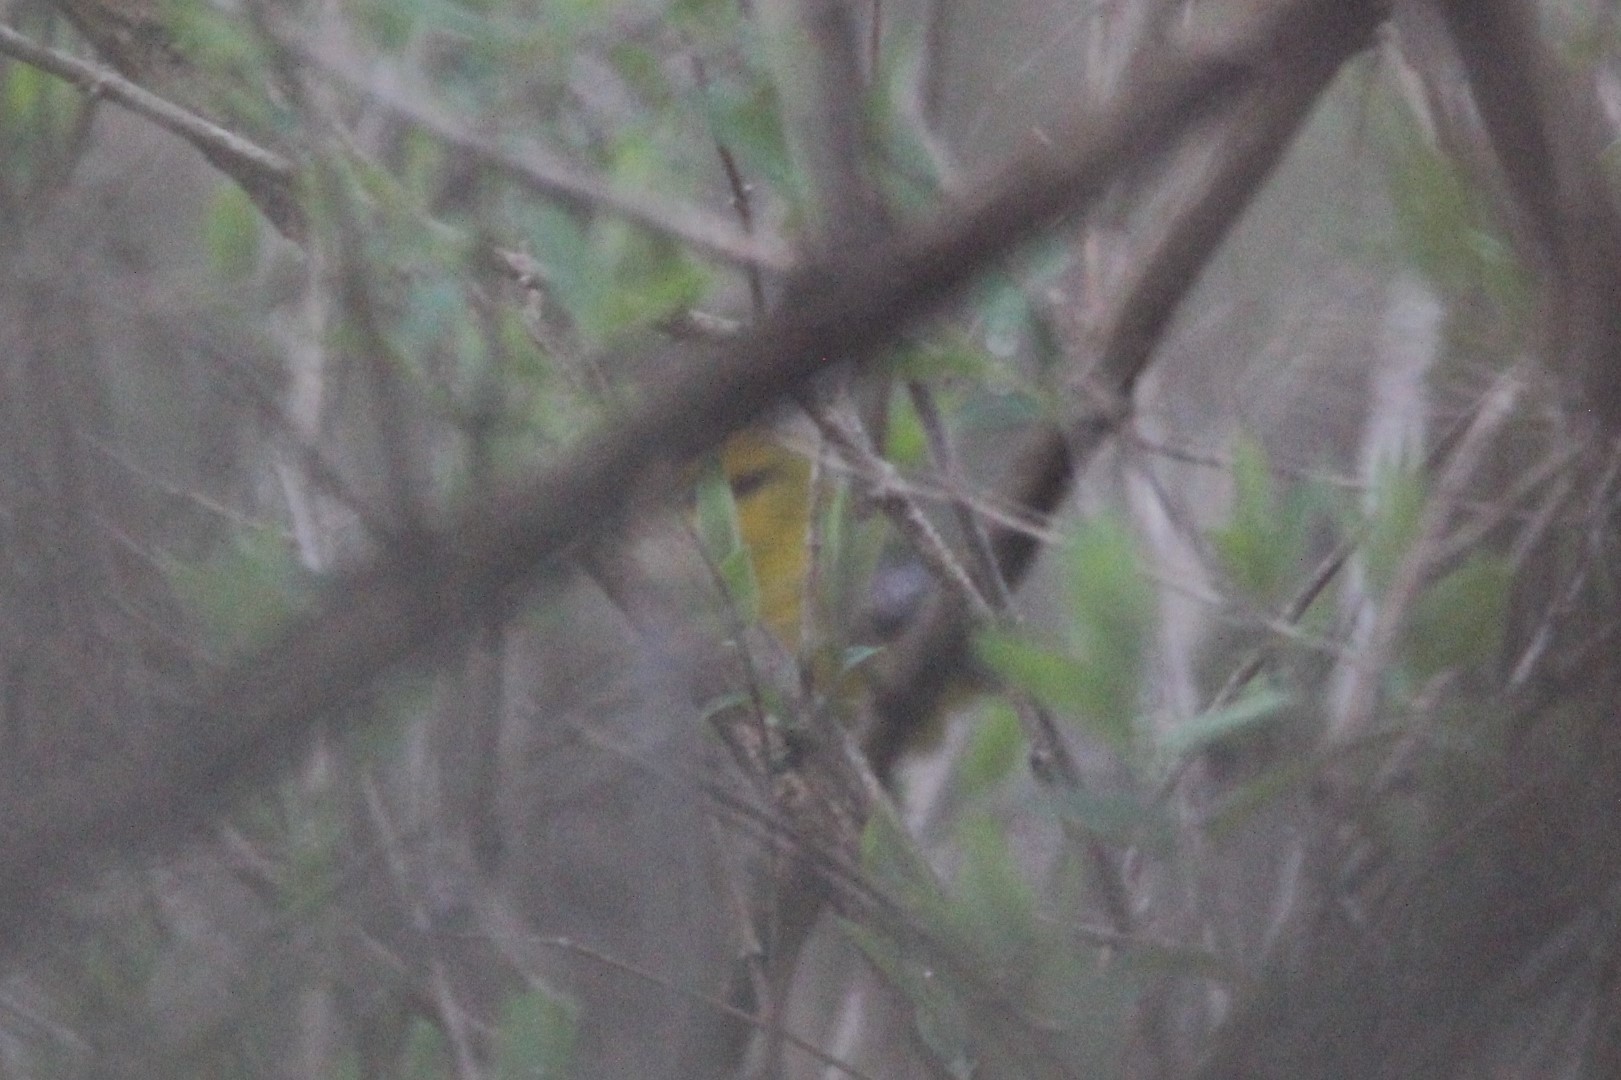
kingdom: Animalia
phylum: Chordata
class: Aves
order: Passeriformes
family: Parulidae
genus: Vermivora
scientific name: Vermivora cyanoptera
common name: Blue-winged warbler
